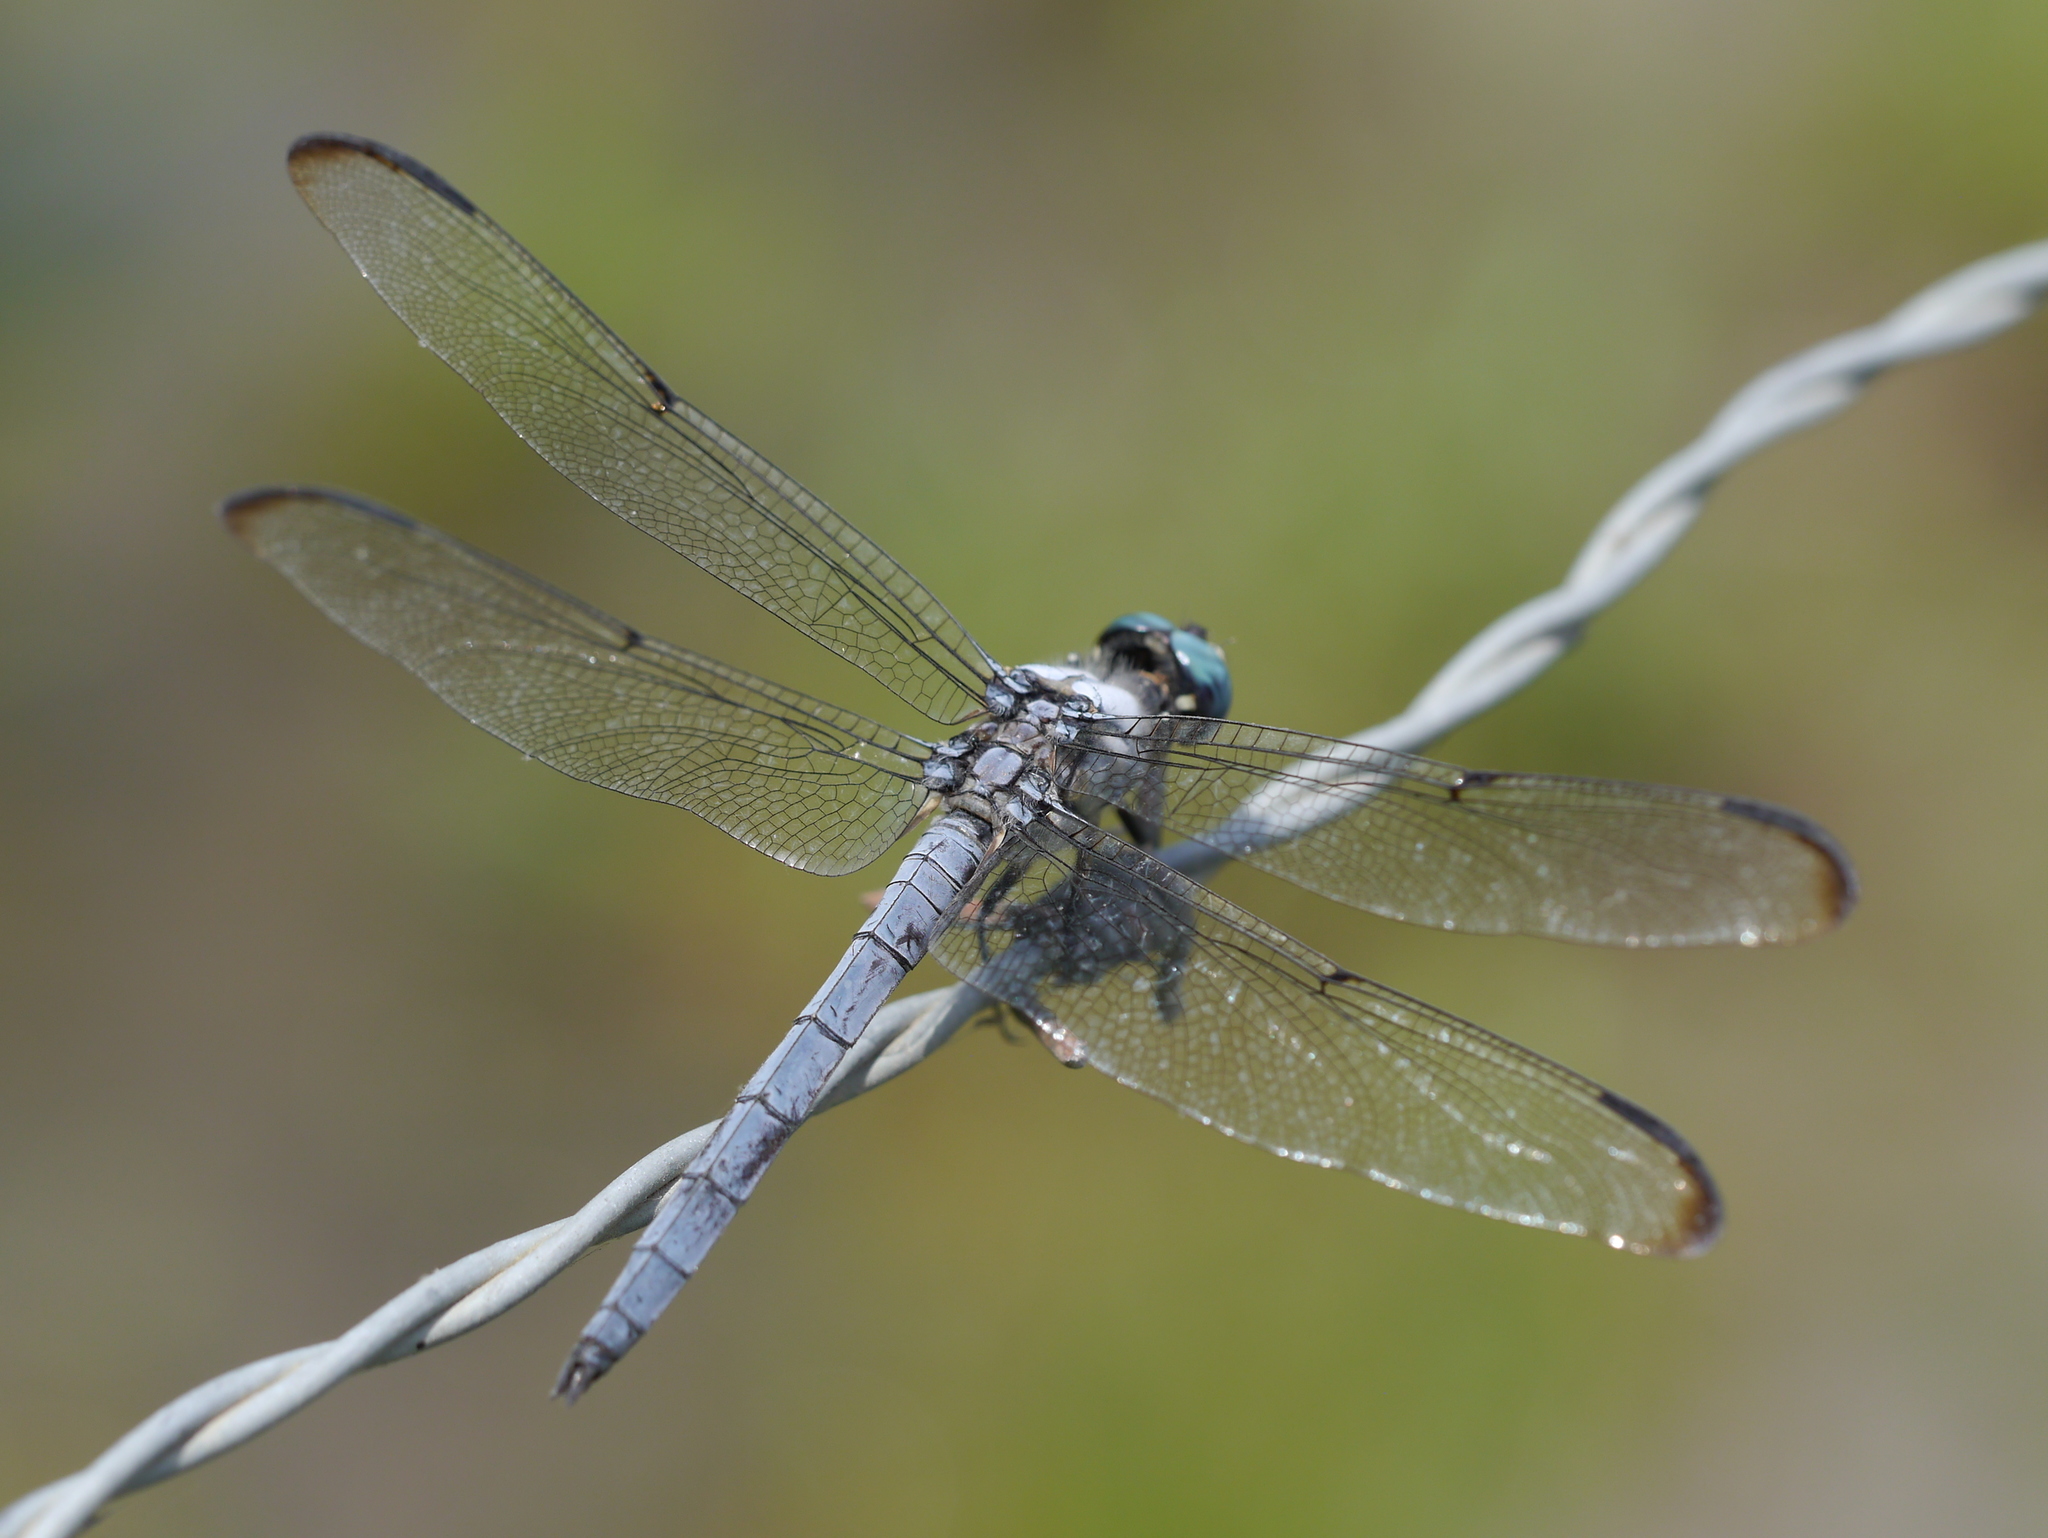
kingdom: Animalia
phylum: Arthropoda
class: Insecta
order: Odonata
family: Libellulidae
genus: Libellula
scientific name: Libellula vibrans
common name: Great blue skimmer
